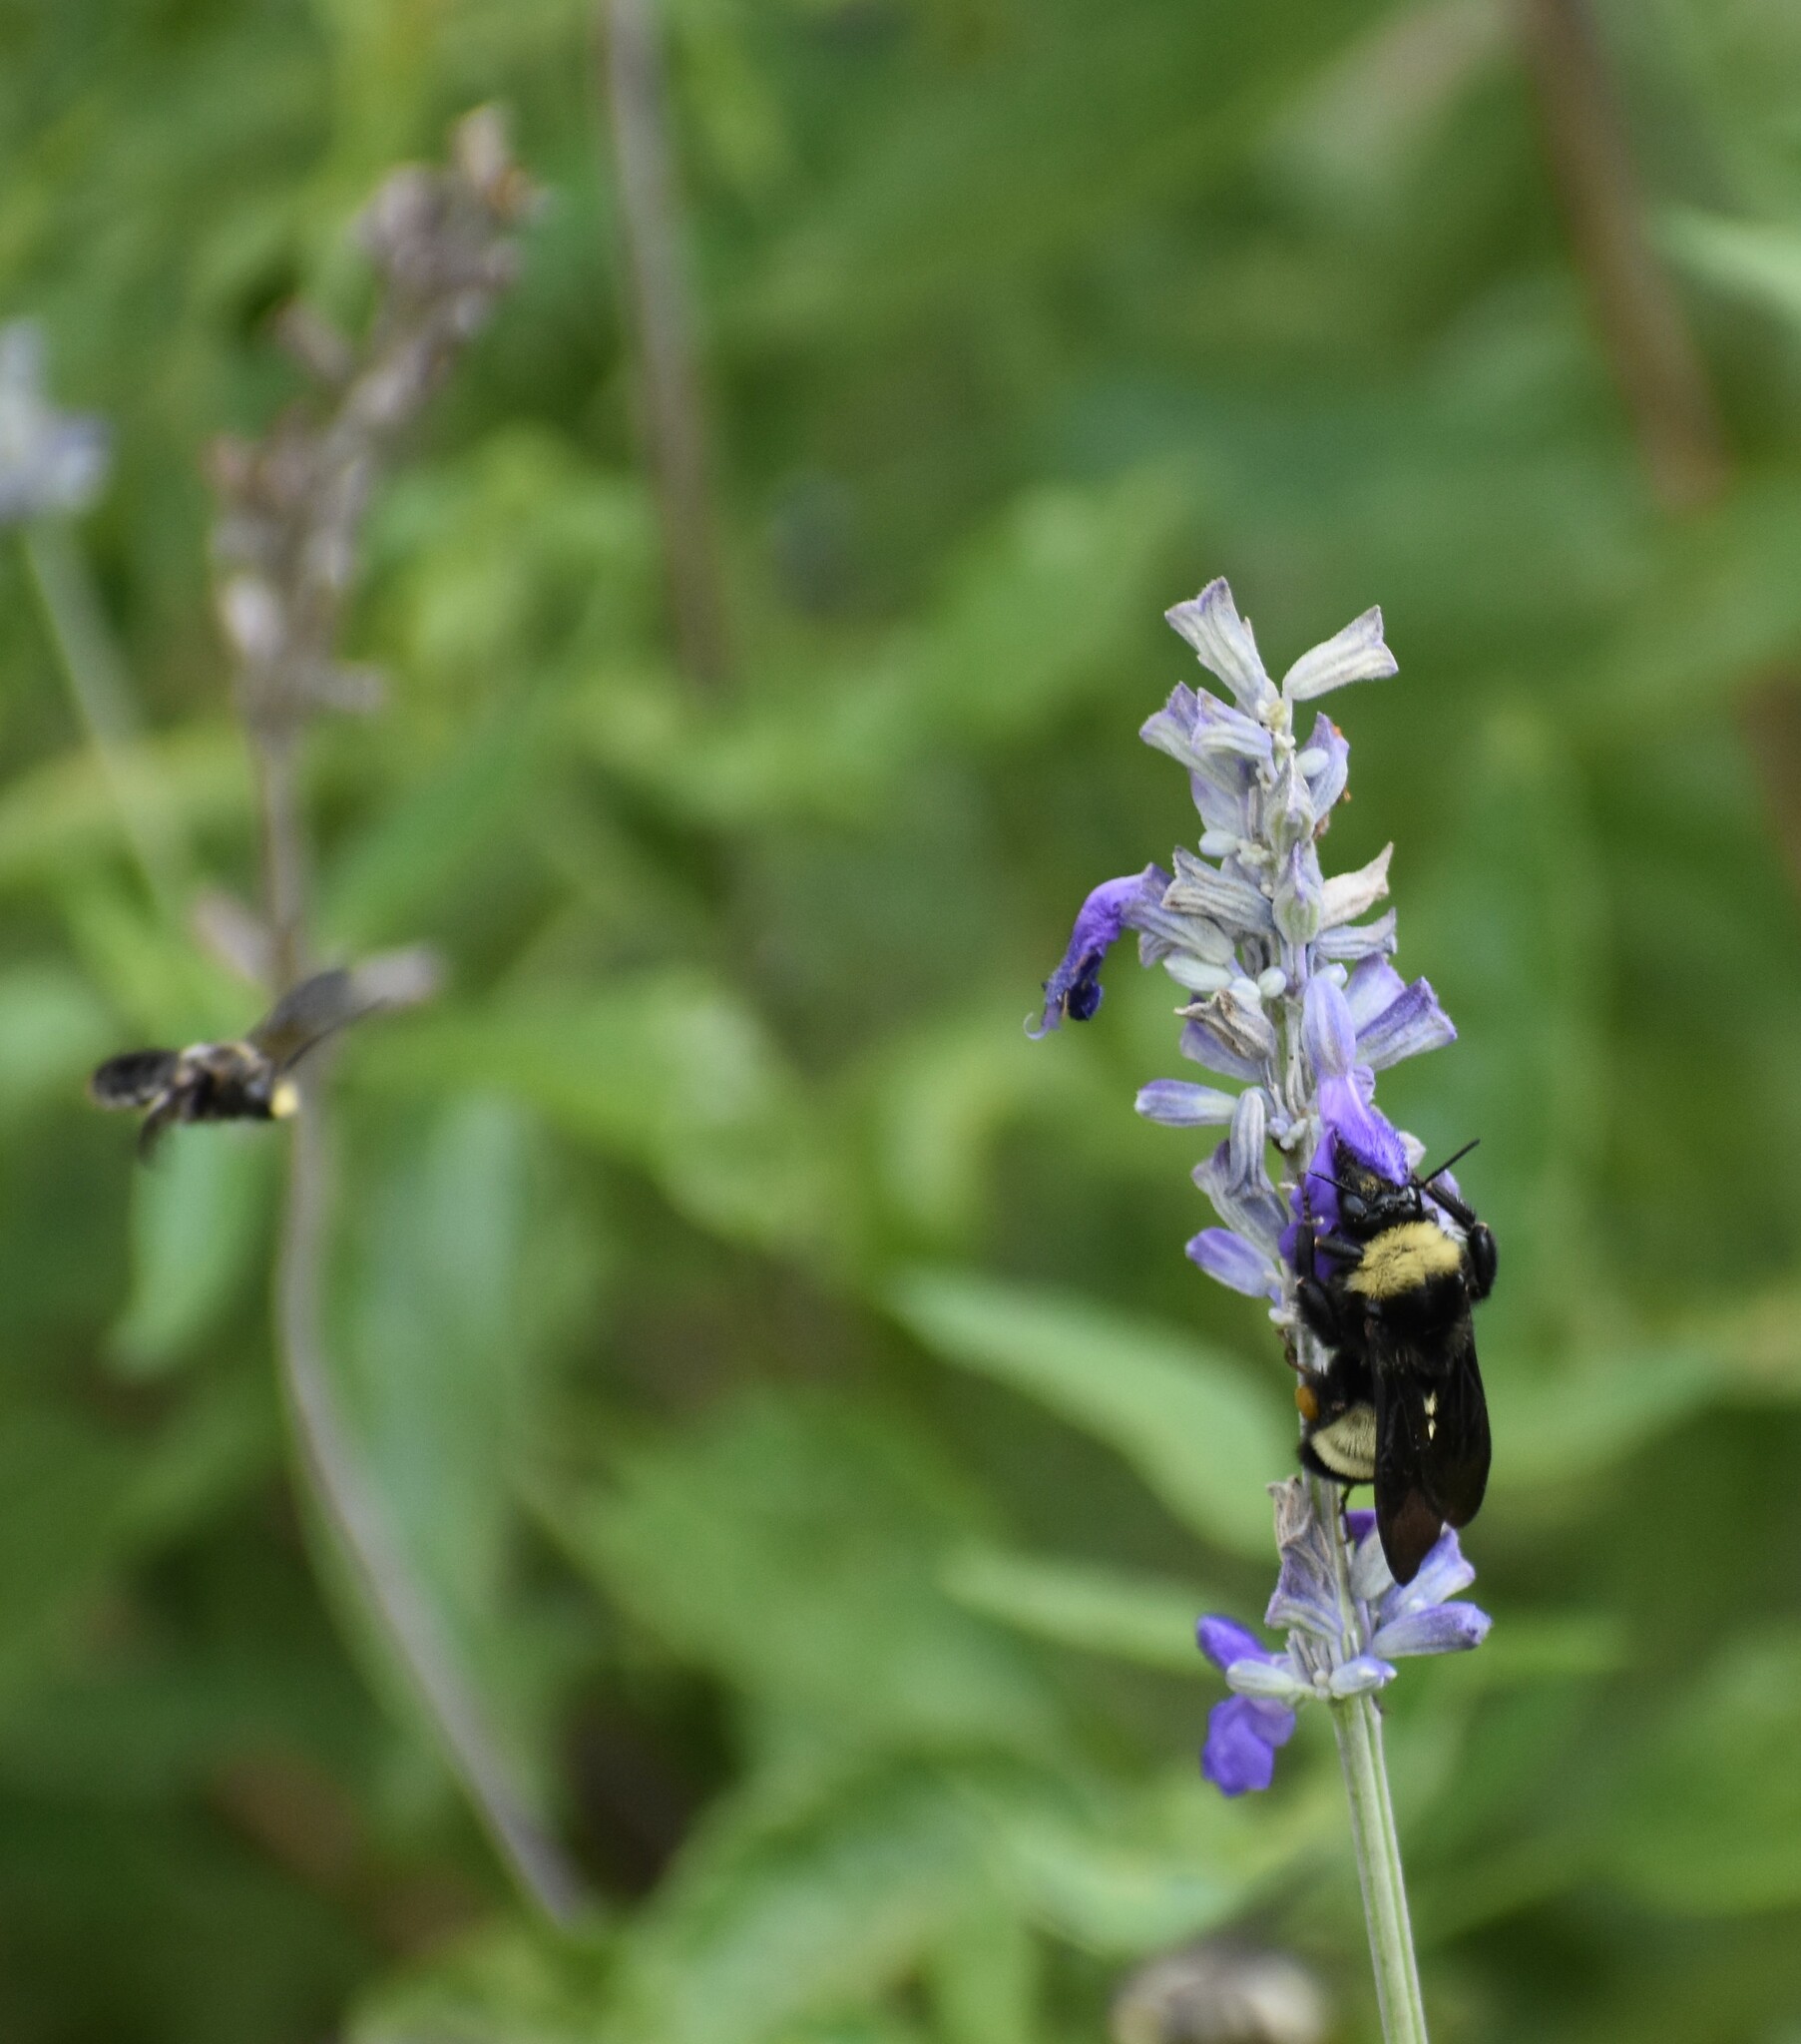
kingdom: Animalia
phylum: Arthropoda
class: Insecta
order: Hymenoptera
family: Apidae
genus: Bombus
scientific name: Bombus pensylvanicus
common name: Bumble bee
